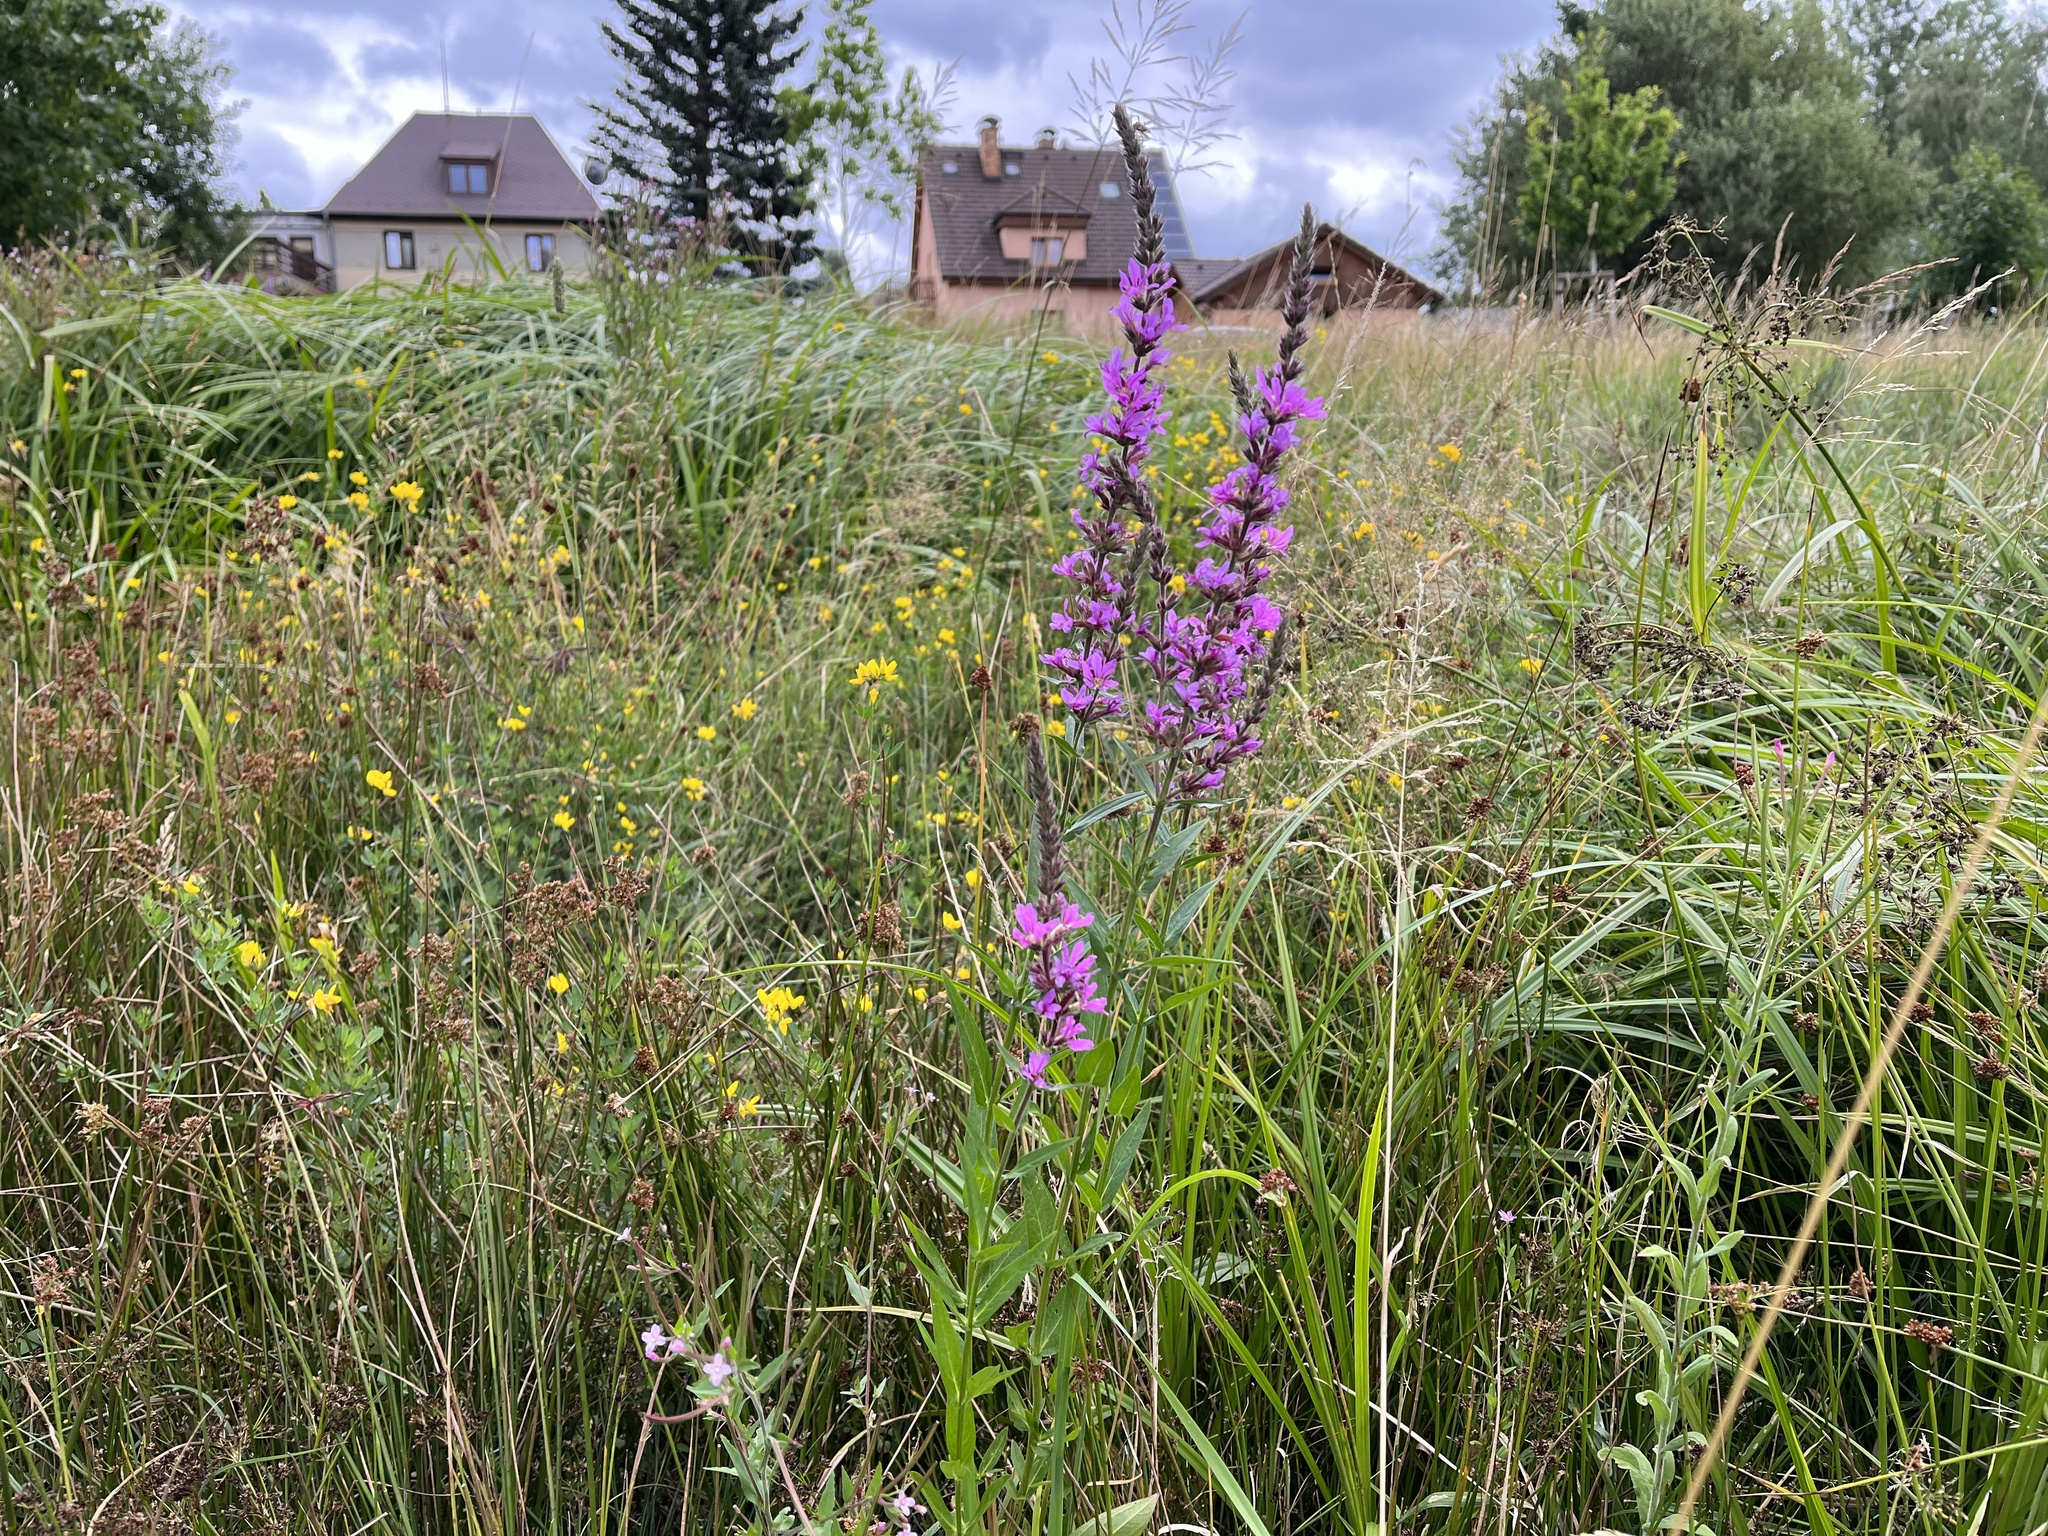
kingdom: Plantae
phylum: Tracheophyta
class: Magnoliopsida
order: Myrtales
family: Lythraceae
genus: Lythrum
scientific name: Lythrum salicaria
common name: Purple loosestrife
